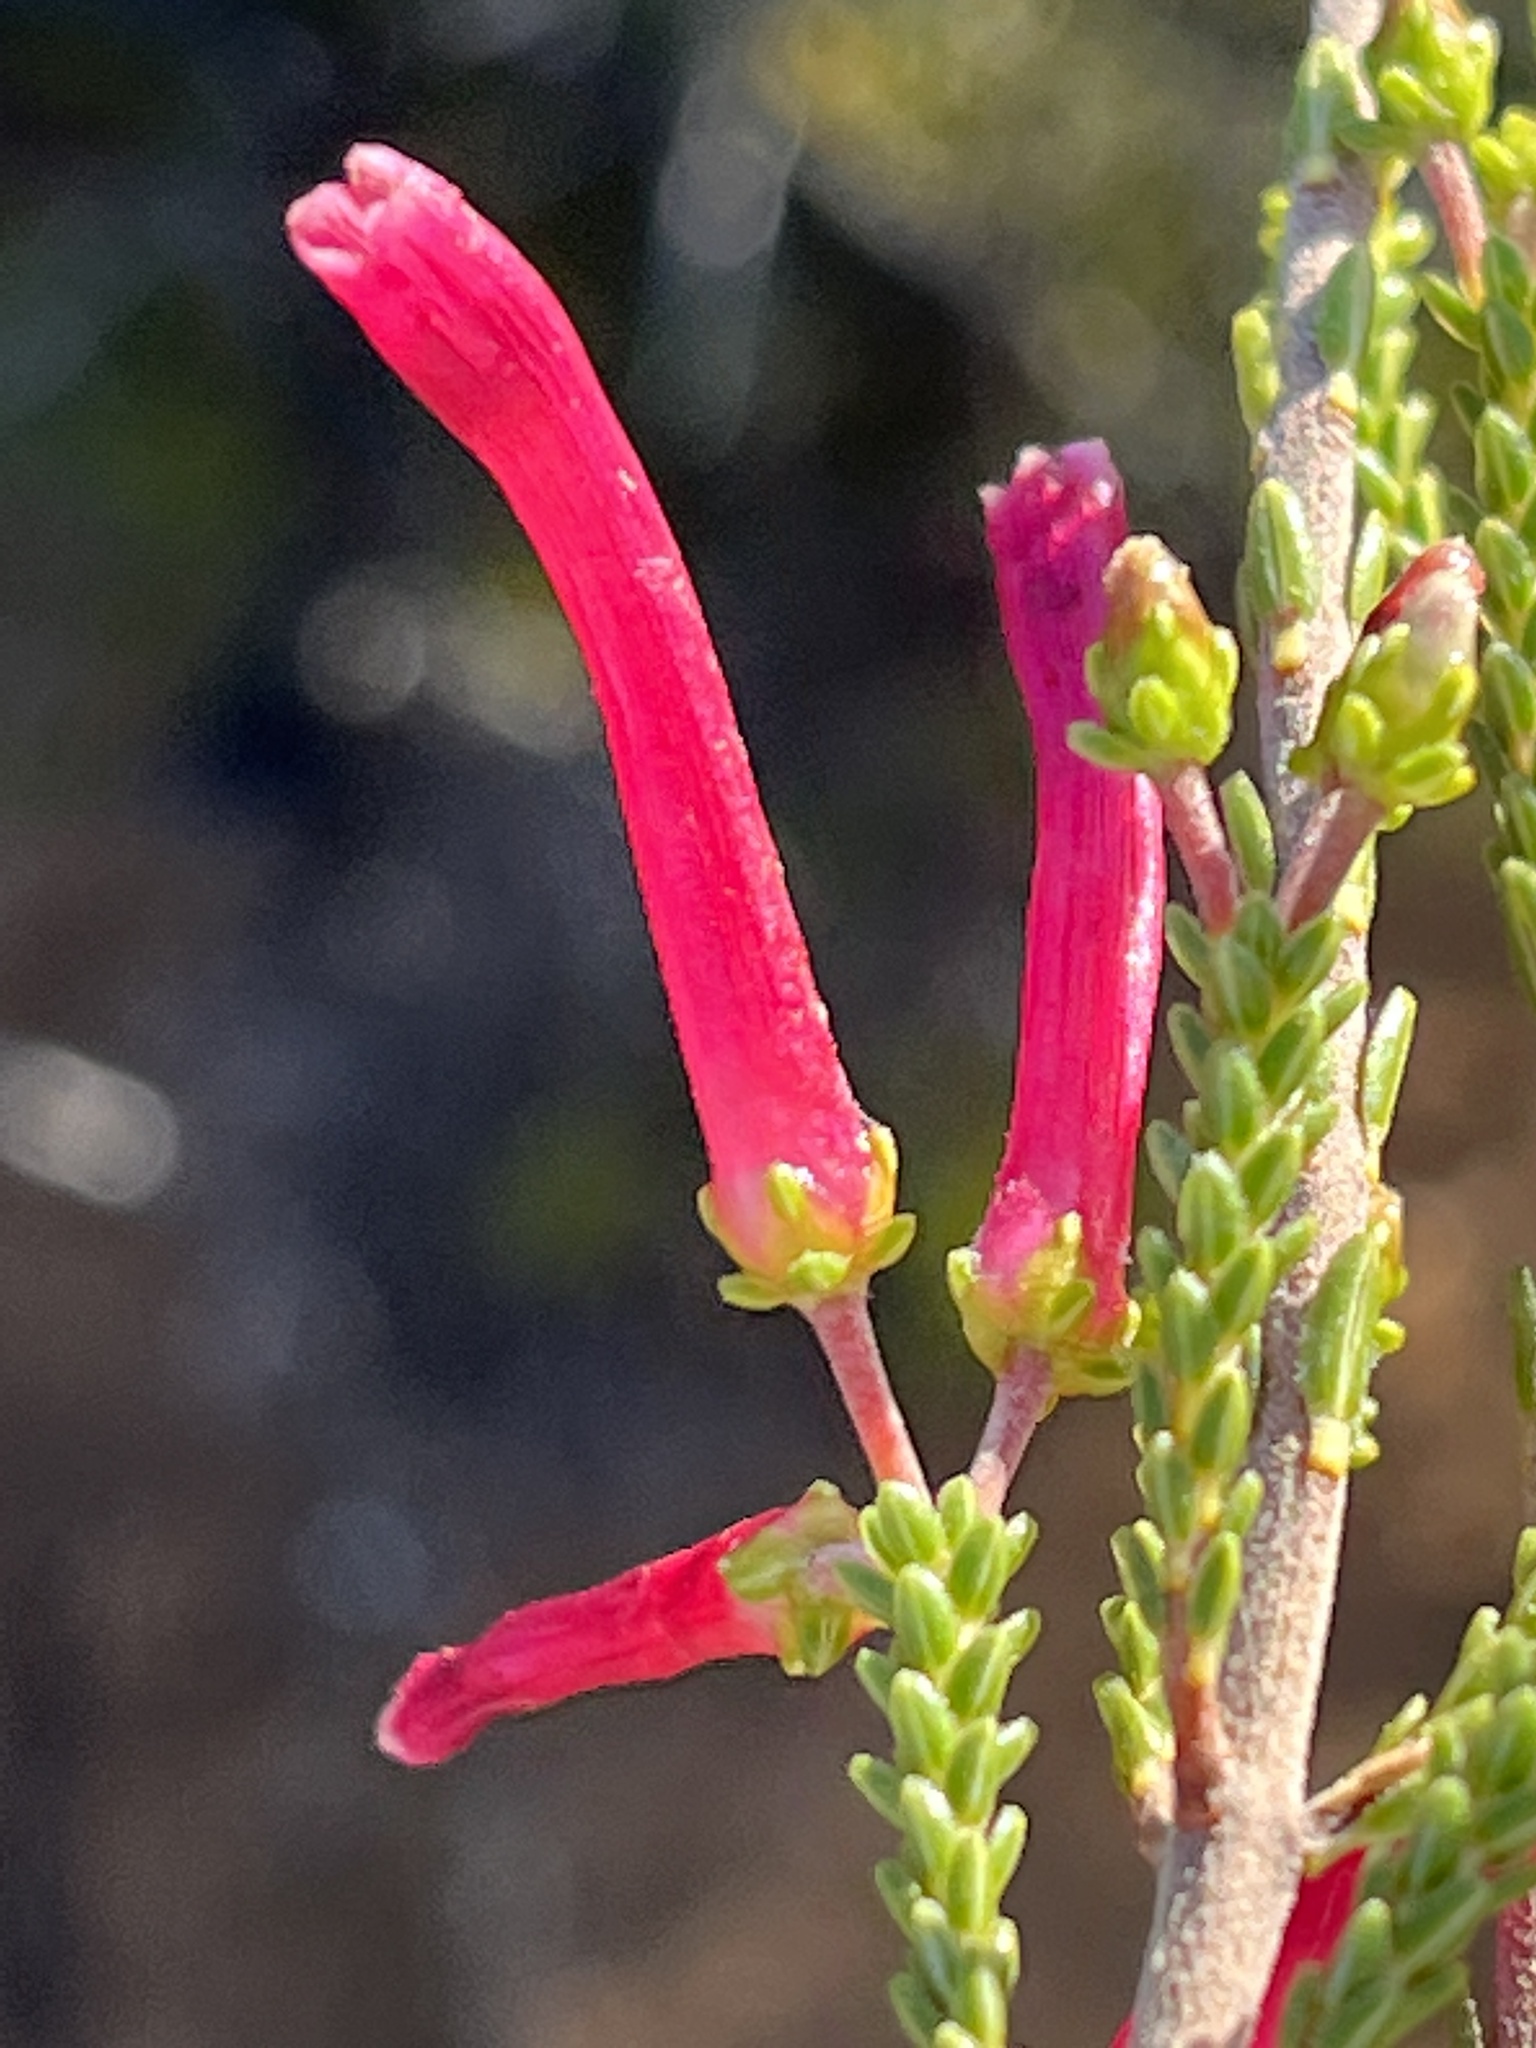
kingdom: Plantae
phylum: Tracheophyta
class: Magnoliopsida
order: Ericales
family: Ericaceae
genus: Erica
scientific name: Erica prolata
